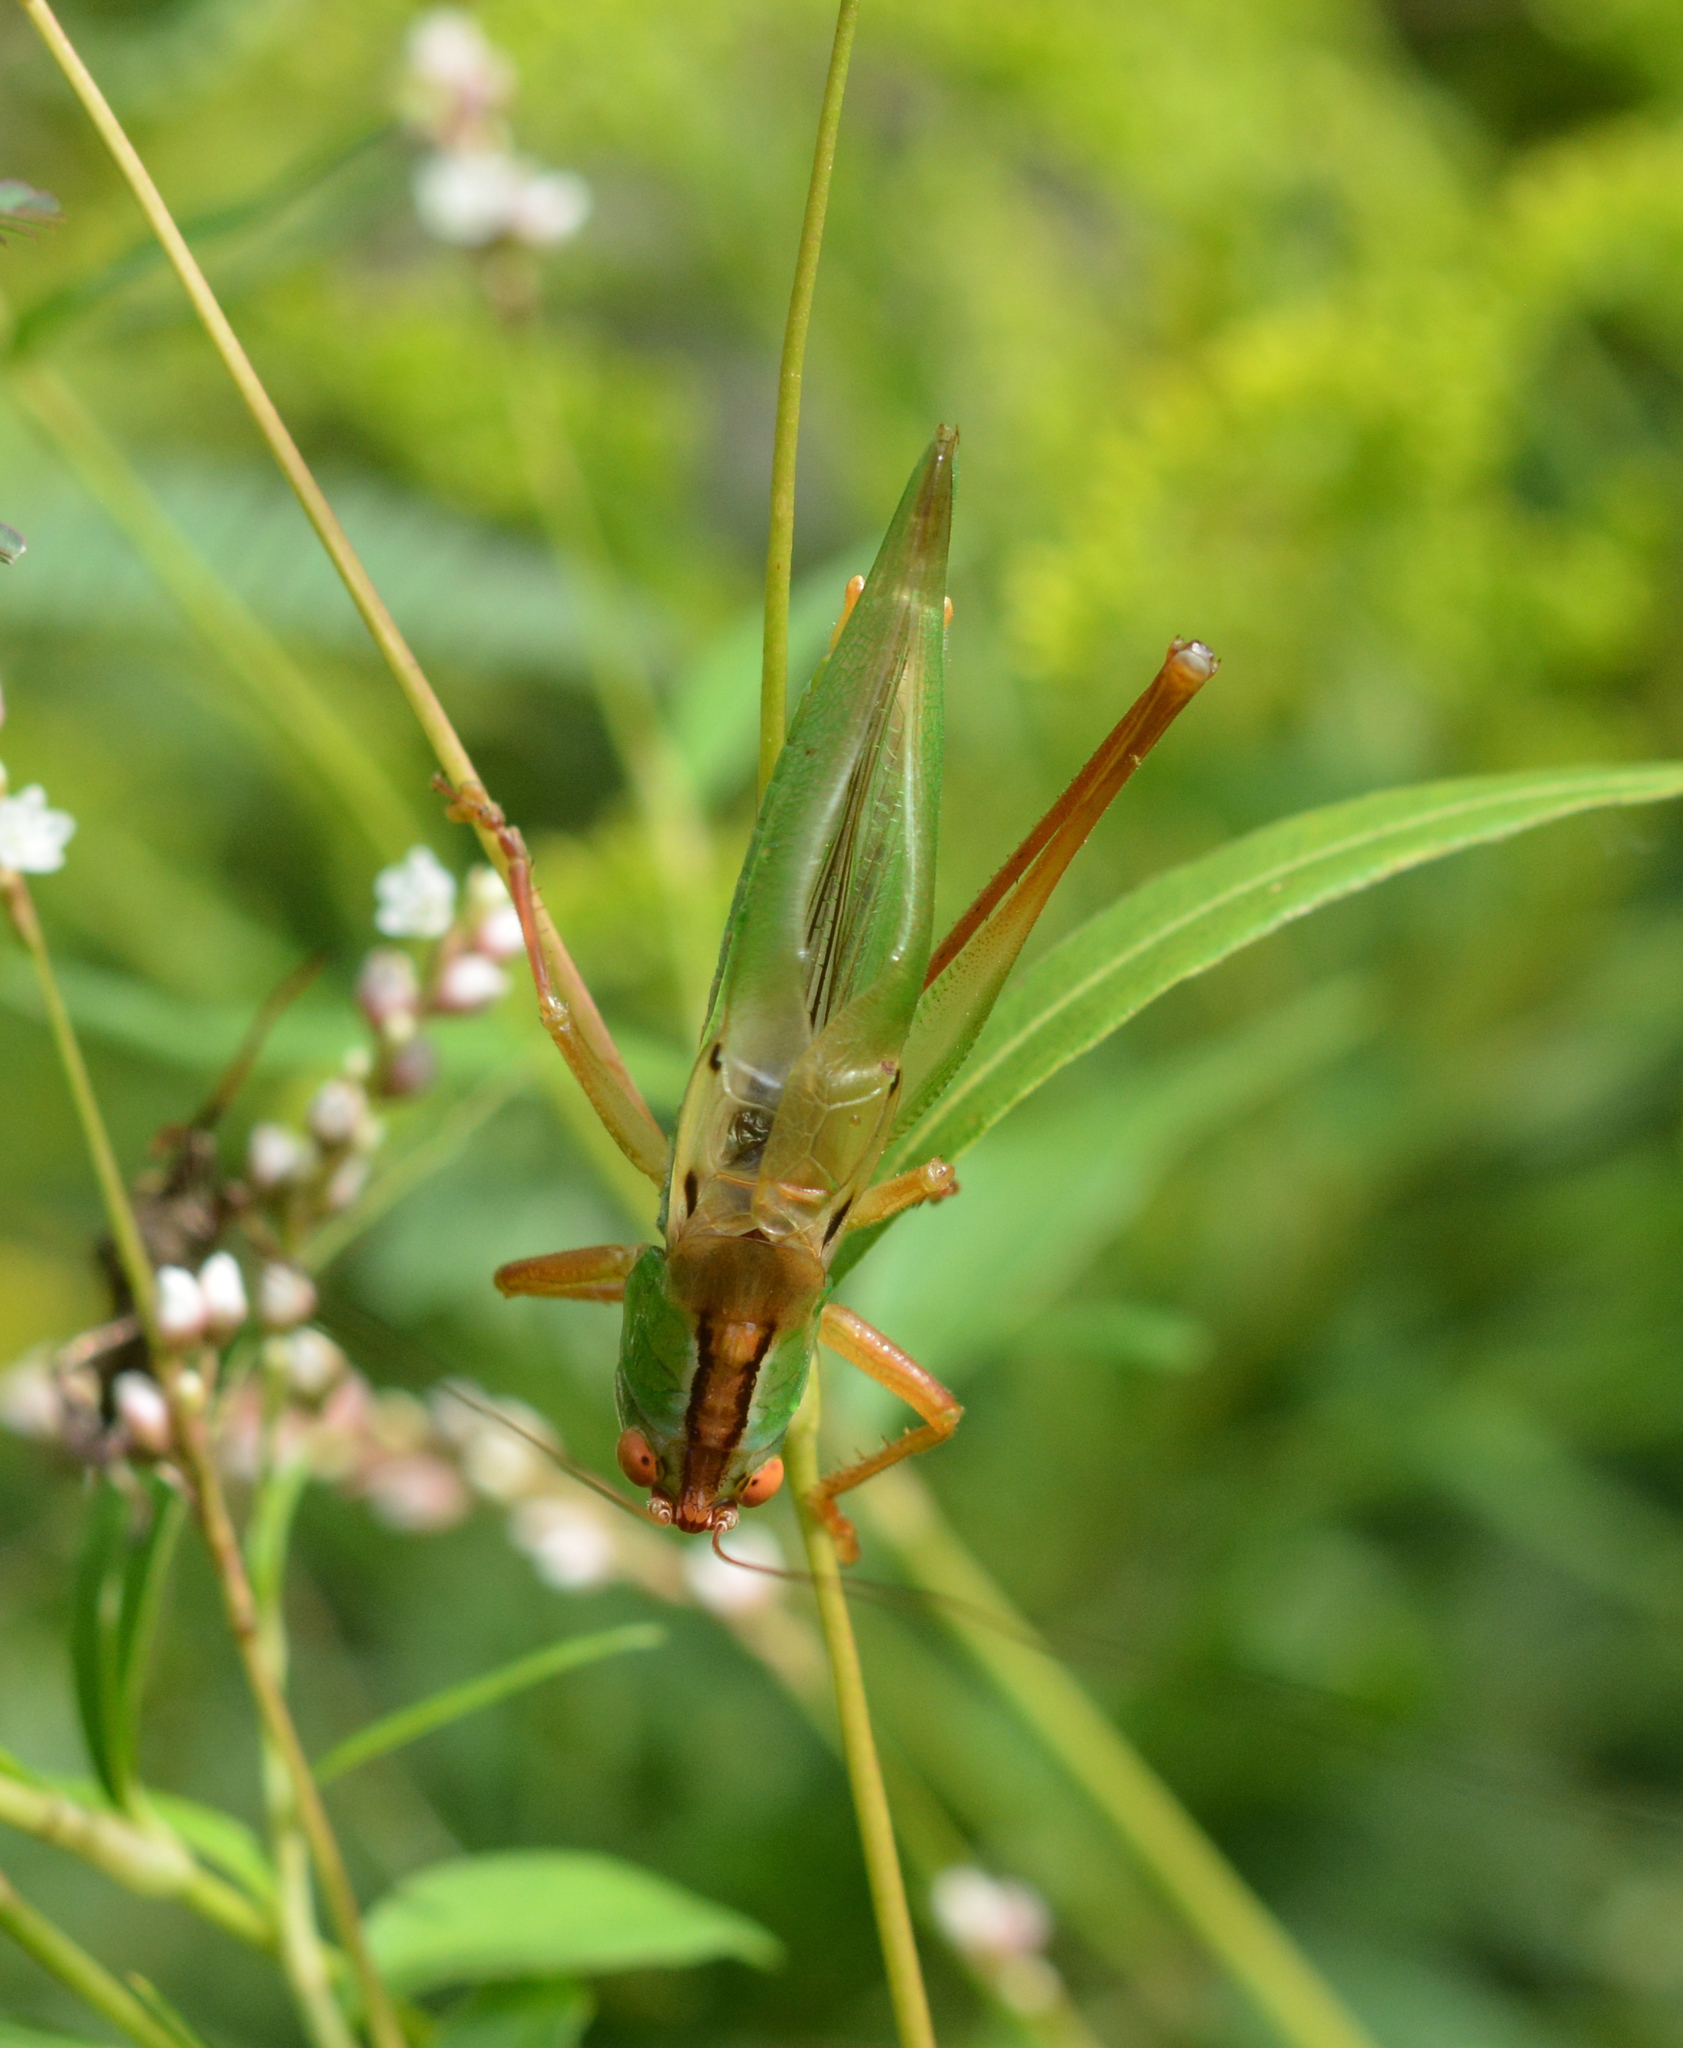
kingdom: Animalia
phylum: Arthropoda
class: Insecta
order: Orthoptera
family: Tettigoniidae
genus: Orchelimum
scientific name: Orchelimum vulgare
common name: Common meadow katydid
